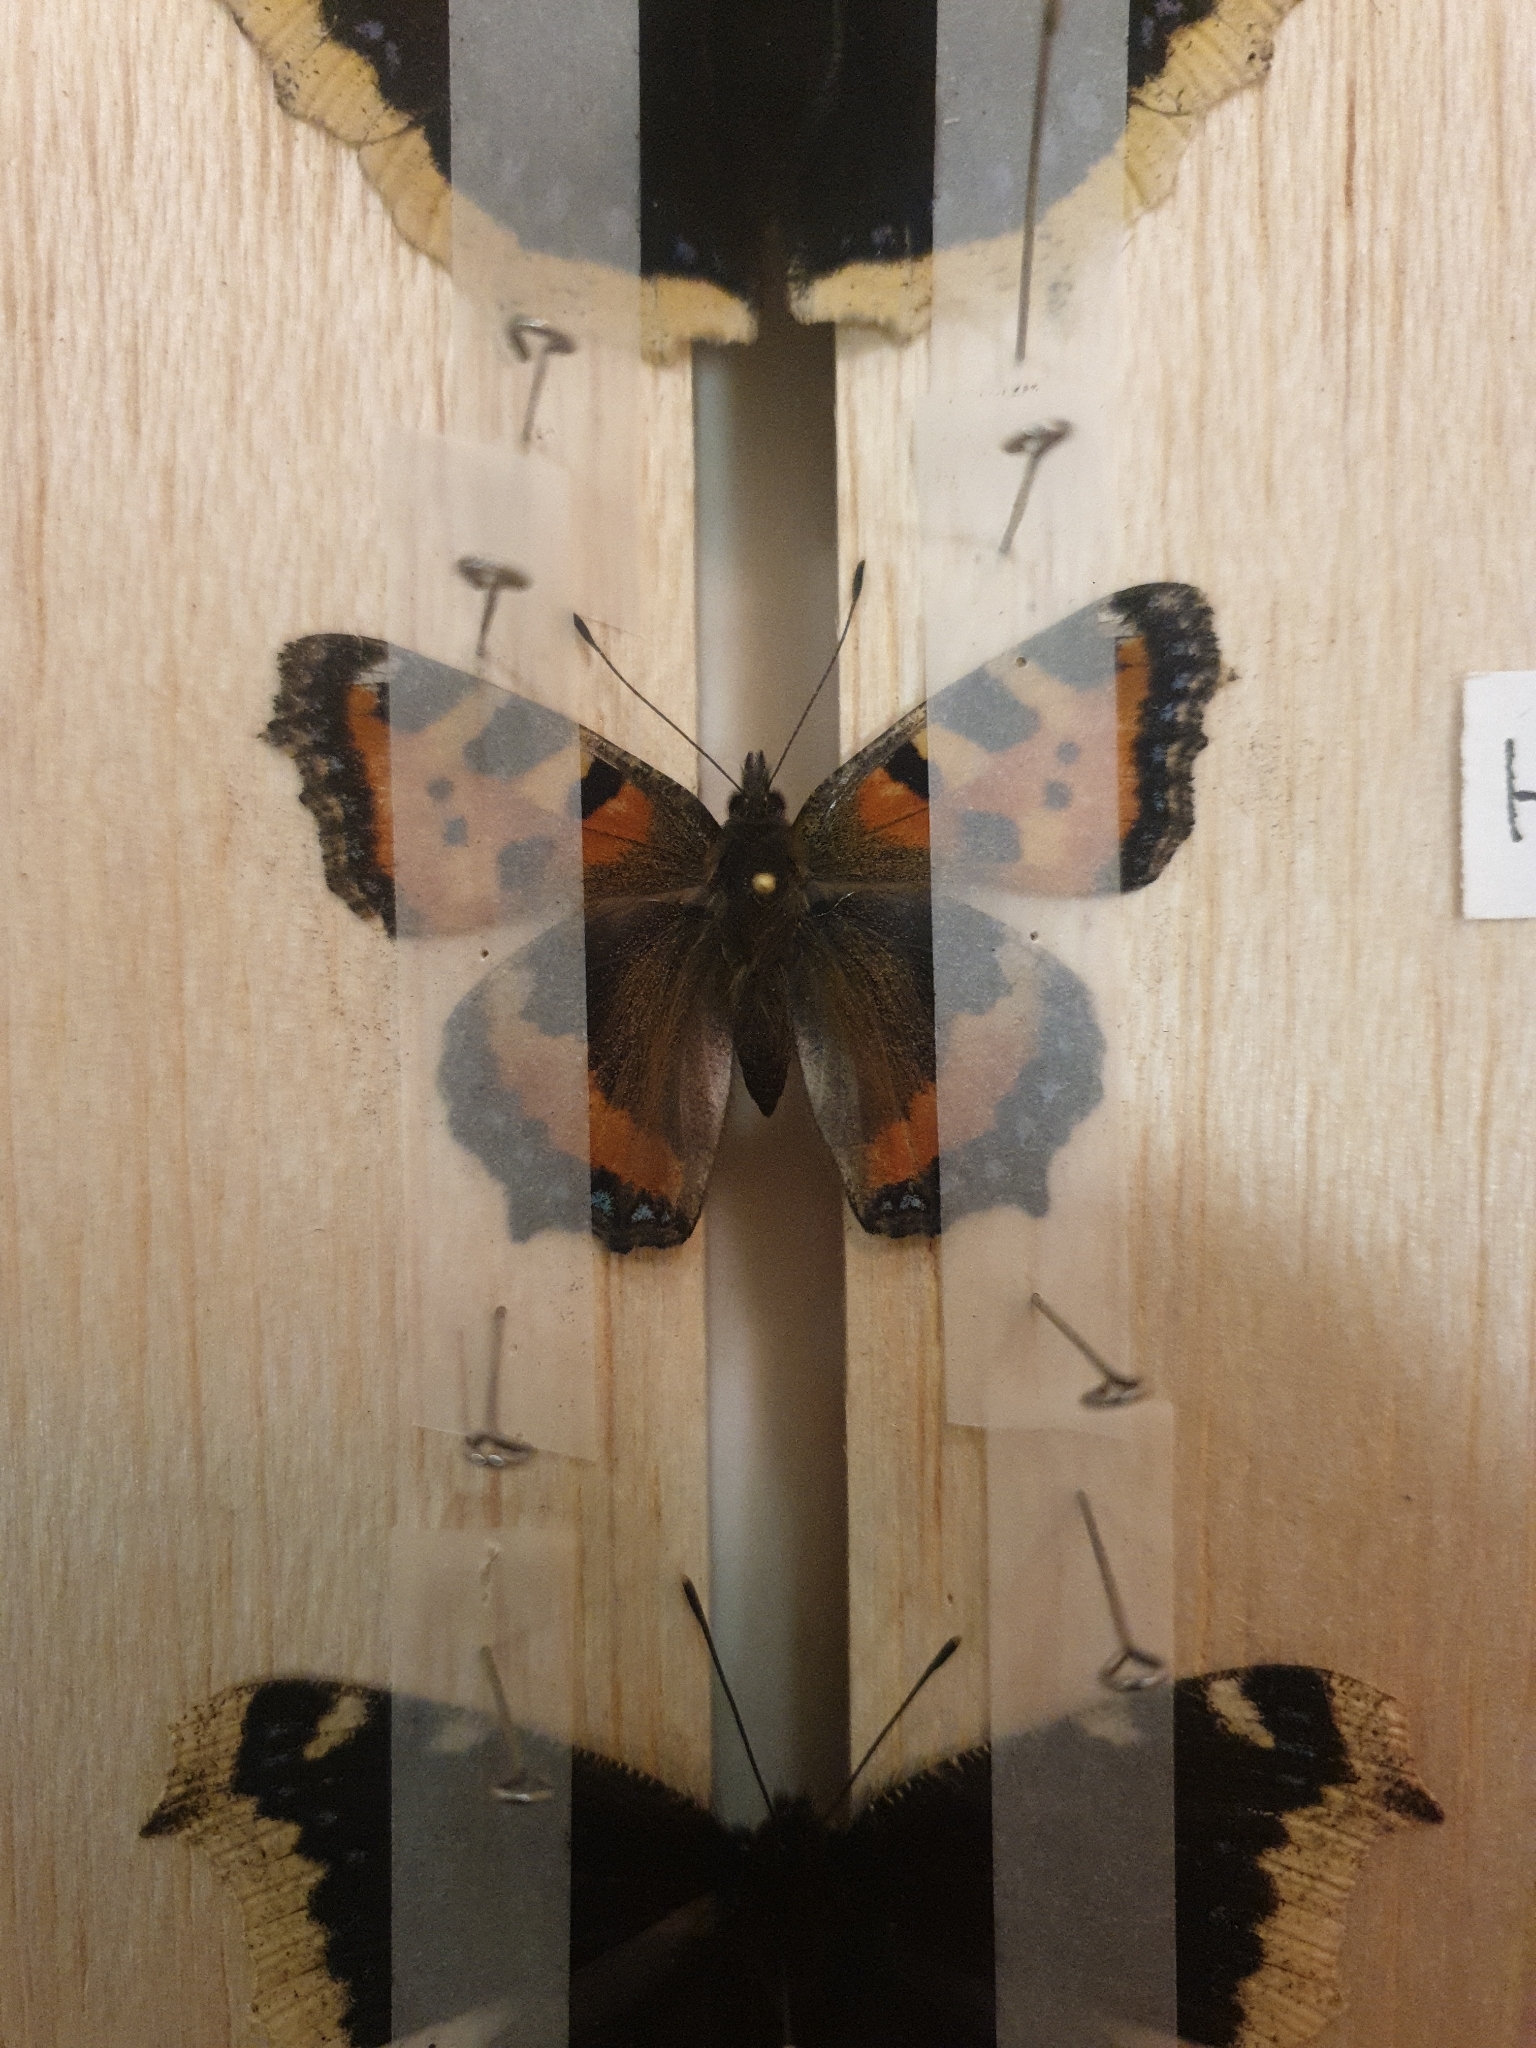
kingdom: Animalia
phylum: Arthropoda
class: Insecta
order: Lepidoptera
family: Nymphalidae
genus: Aglais
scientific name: Aglais urticae
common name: Small tortoiseshell
